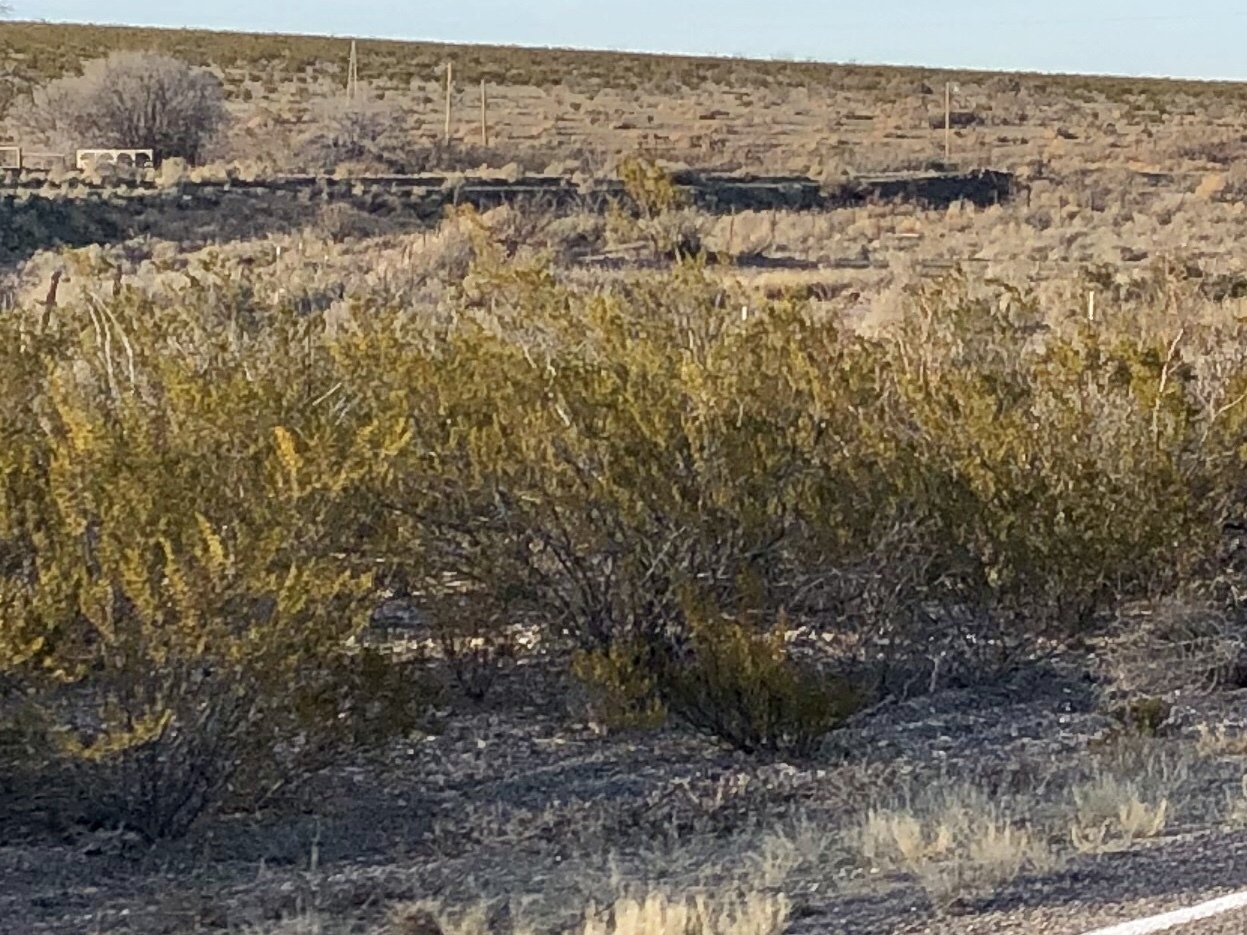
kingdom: Plantae
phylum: Tracheophyta
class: Magnoliopsida
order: Zygophyllales
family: Zygophyllaceae
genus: Larrea
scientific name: Larrea tridentata
